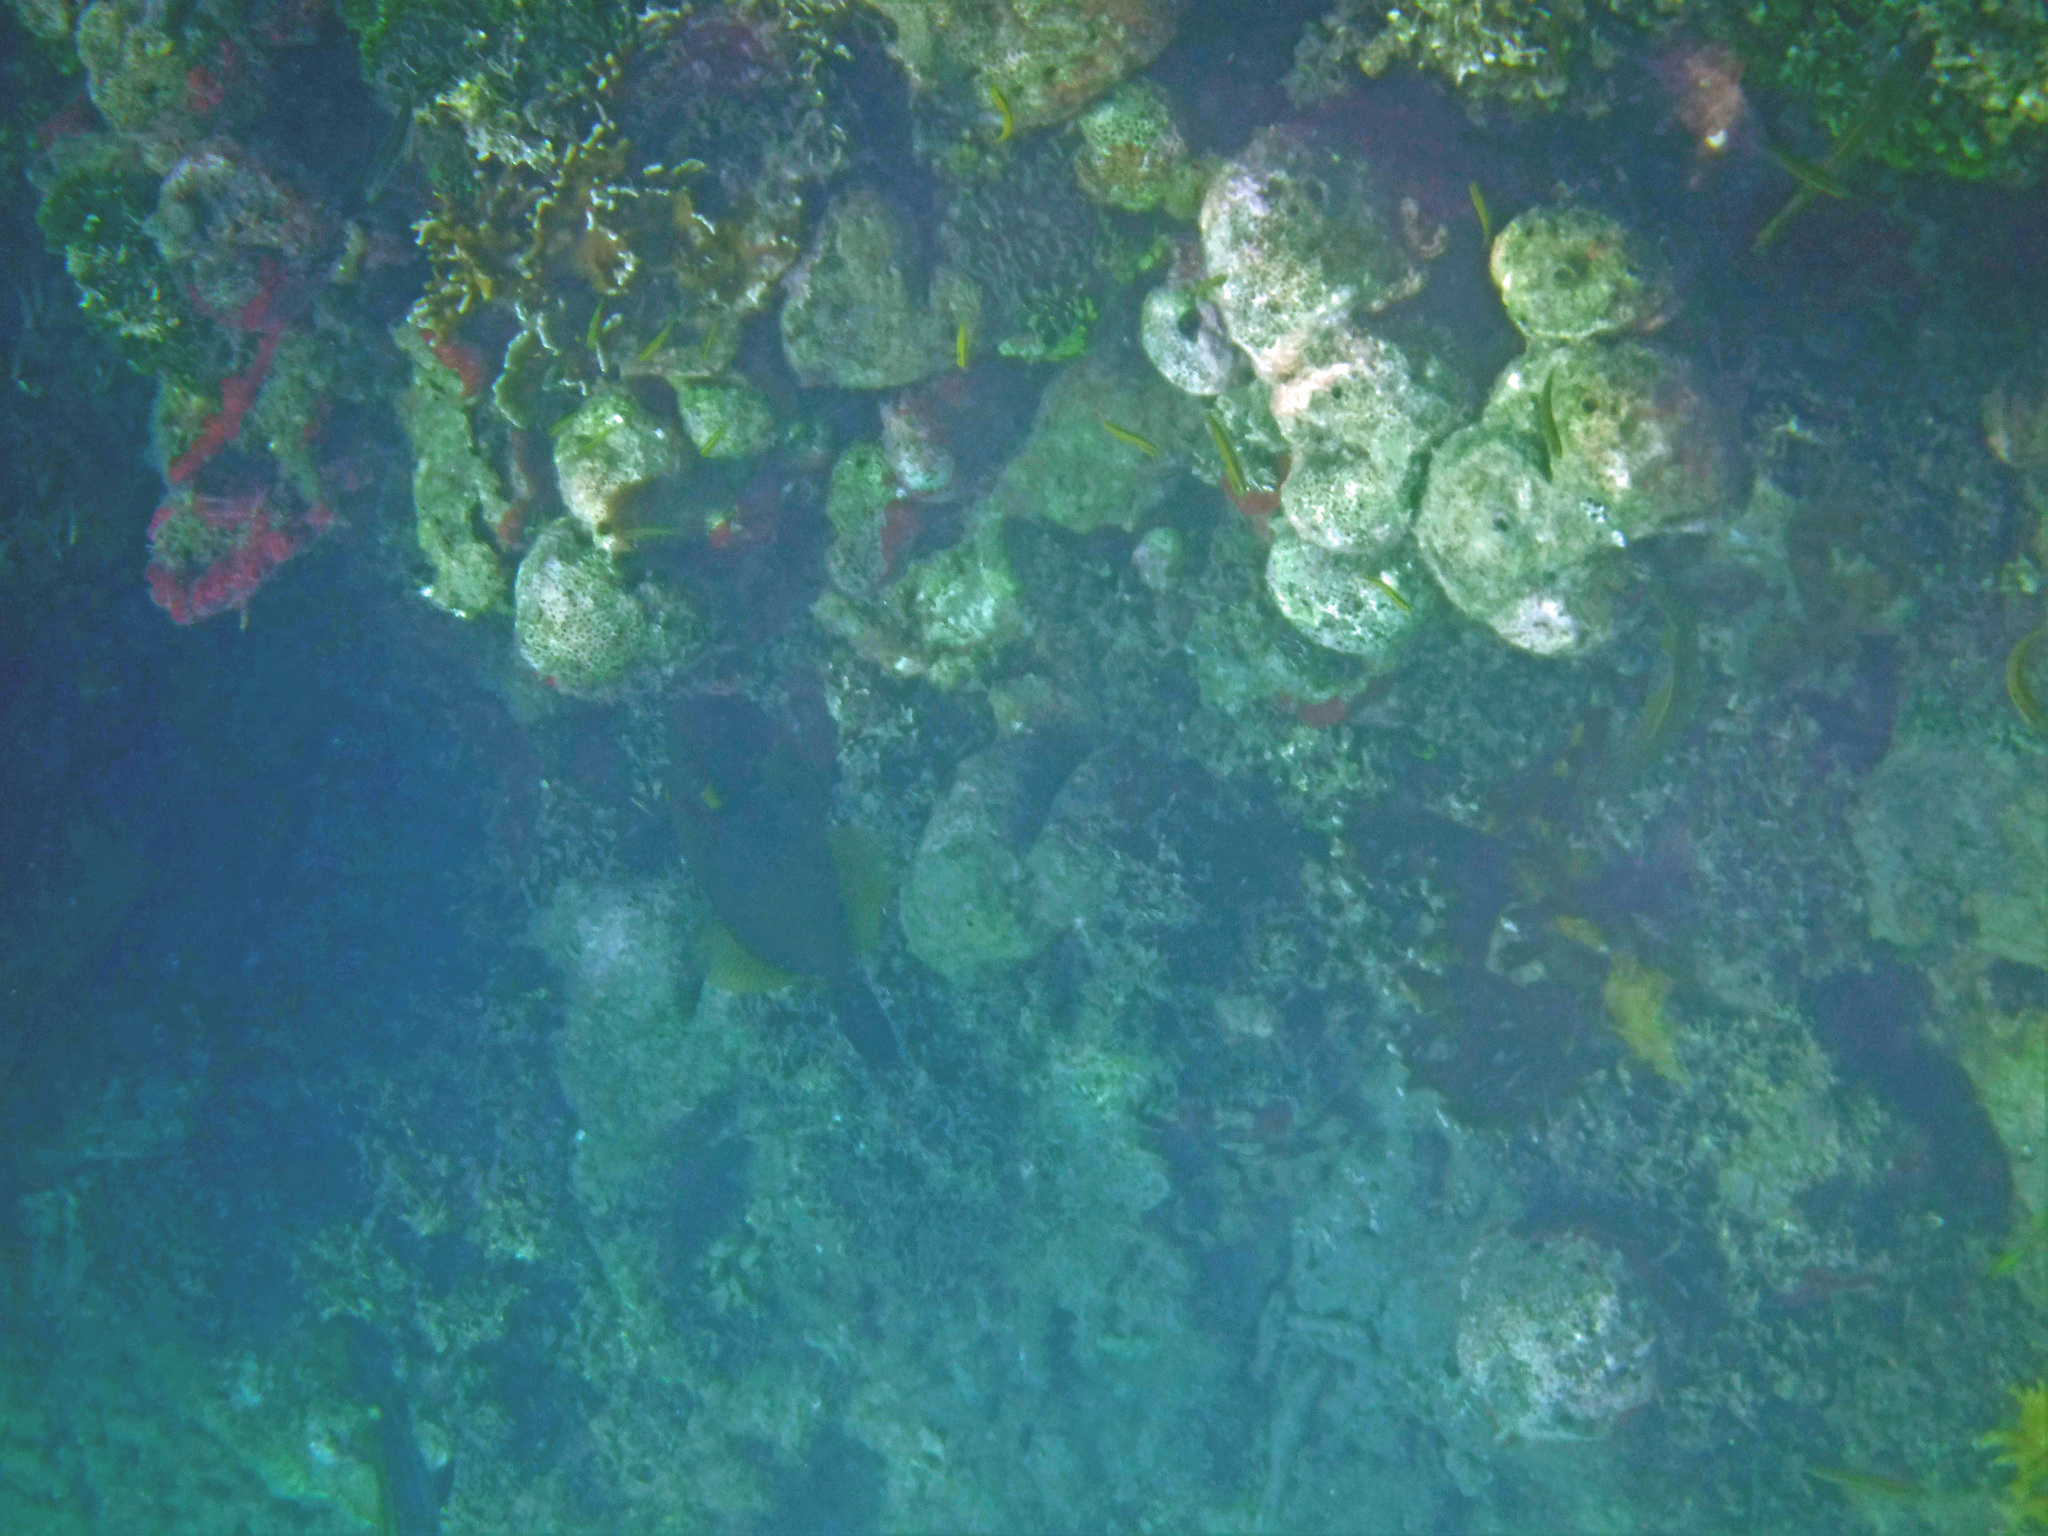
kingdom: Animalia
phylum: Chordata
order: Tetraodontiformes
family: Monacanthidae
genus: Cantherhines
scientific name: Cantherhines macrocerus
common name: Whitespotted filefish
